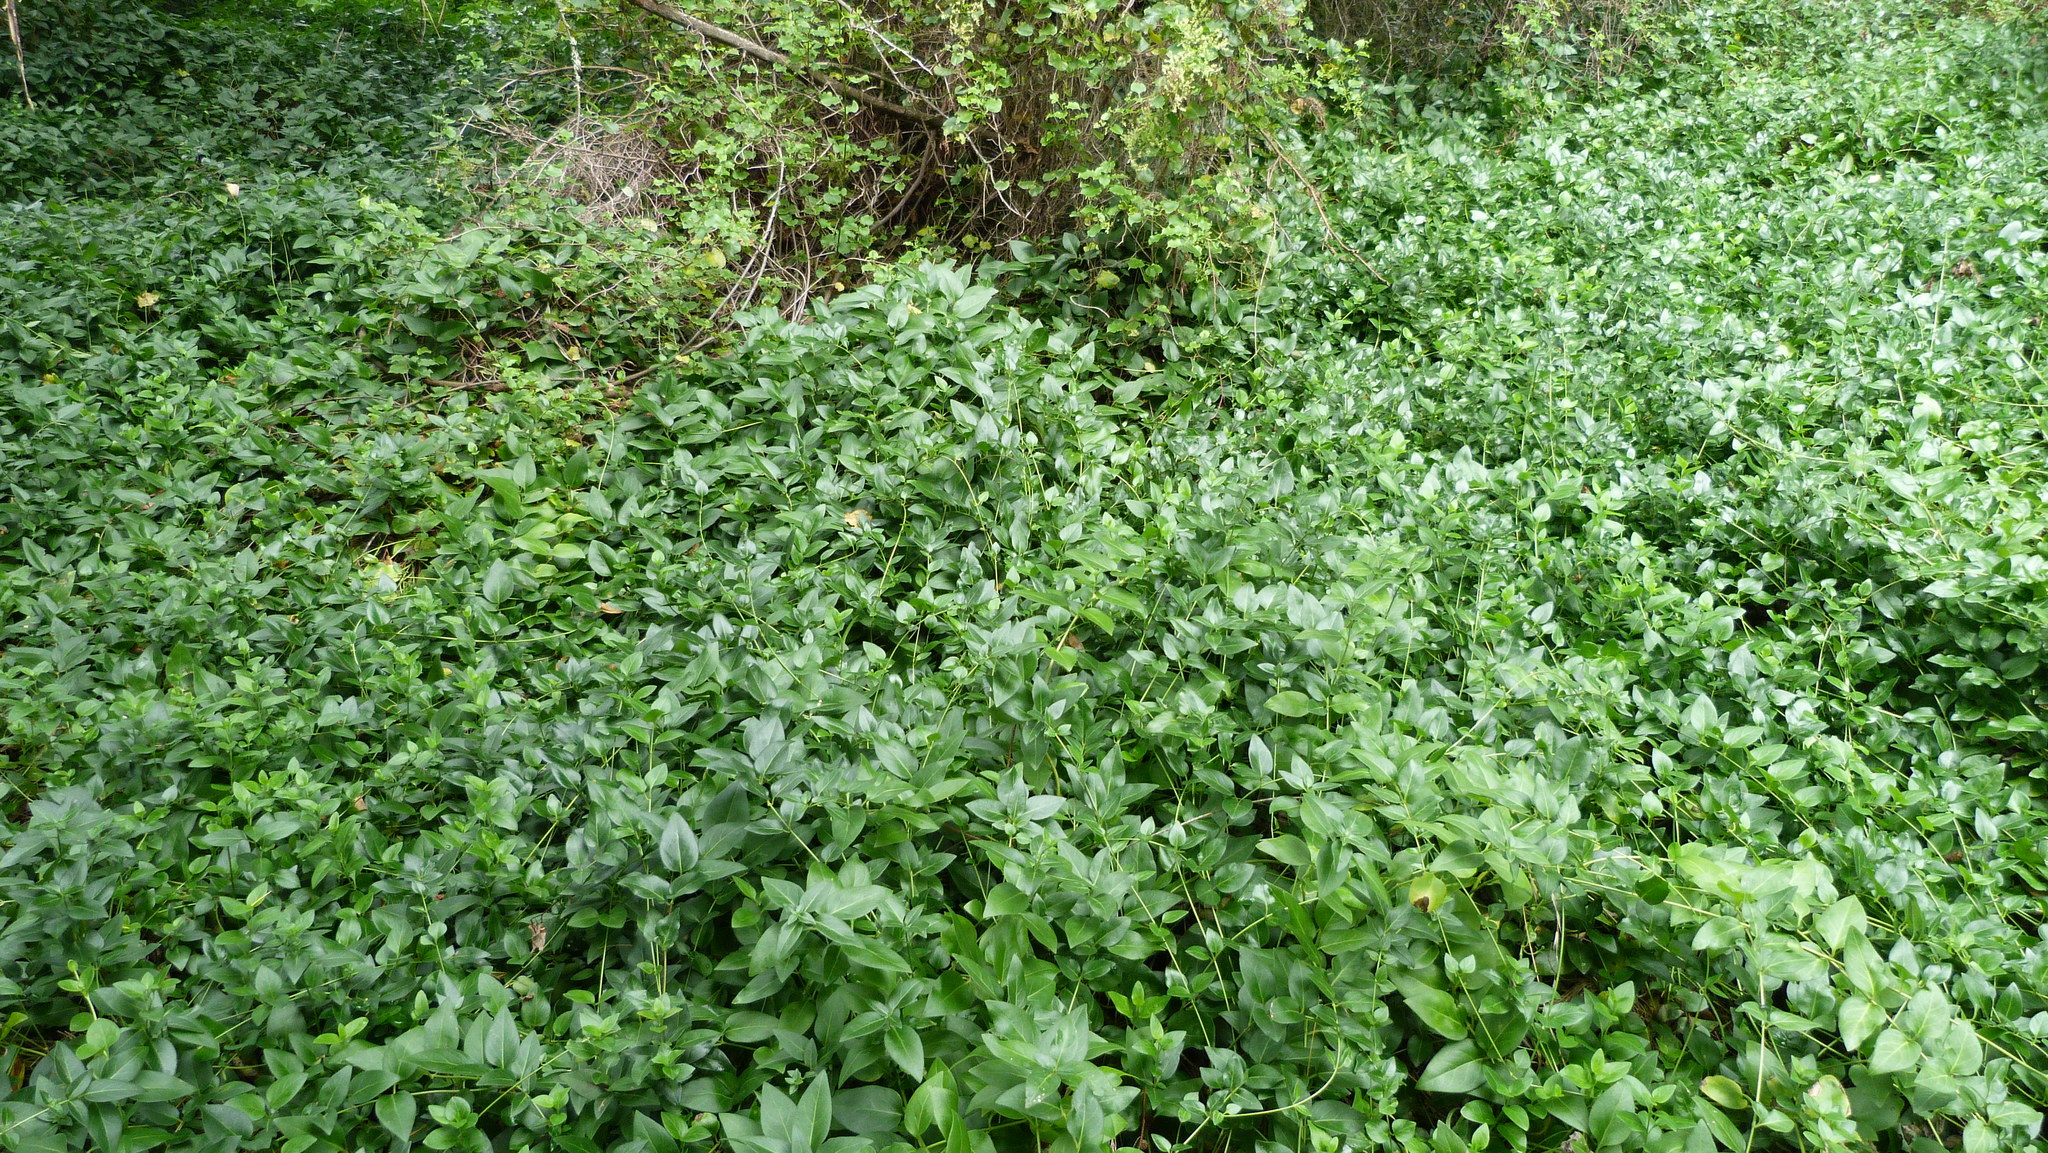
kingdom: Plantae
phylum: Tracheophyta
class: Magnoliopsida
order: Gentianales
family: Apocynaceae
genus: Vinca
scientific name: Vinca major
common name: Greater periwinkle
